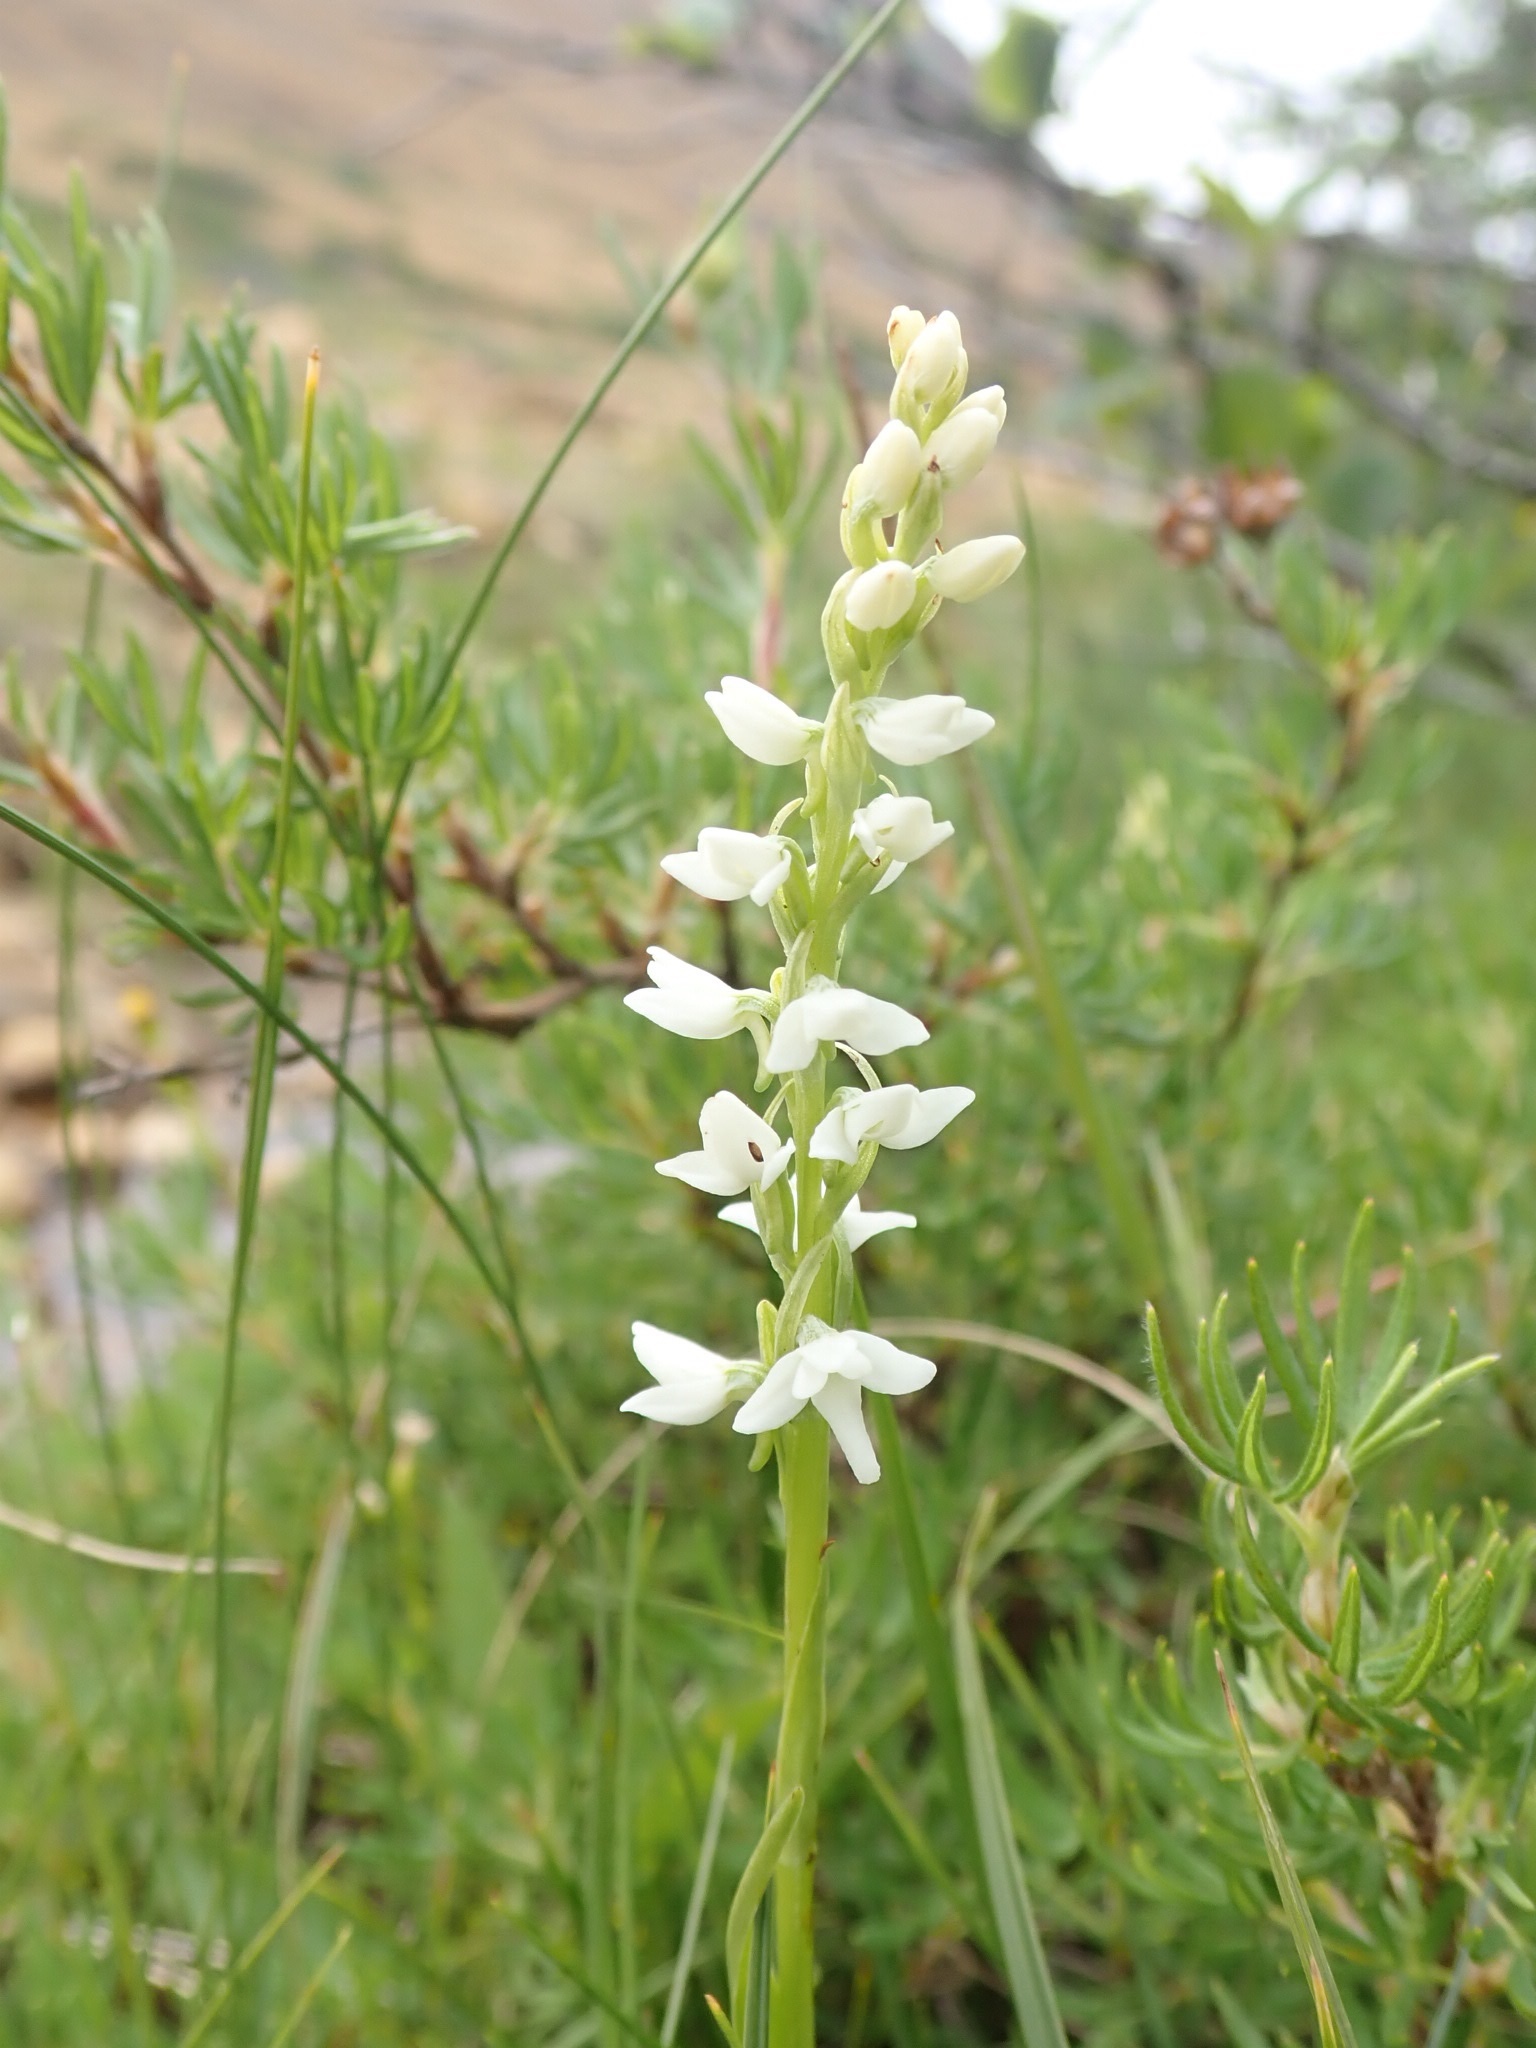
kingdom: Plantae
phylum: Tracheophyta
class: Liliopsida
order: Asparagales
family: Orchidaceae
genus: Platanthera
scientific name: Platanthera dilatata
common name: Bog candles
